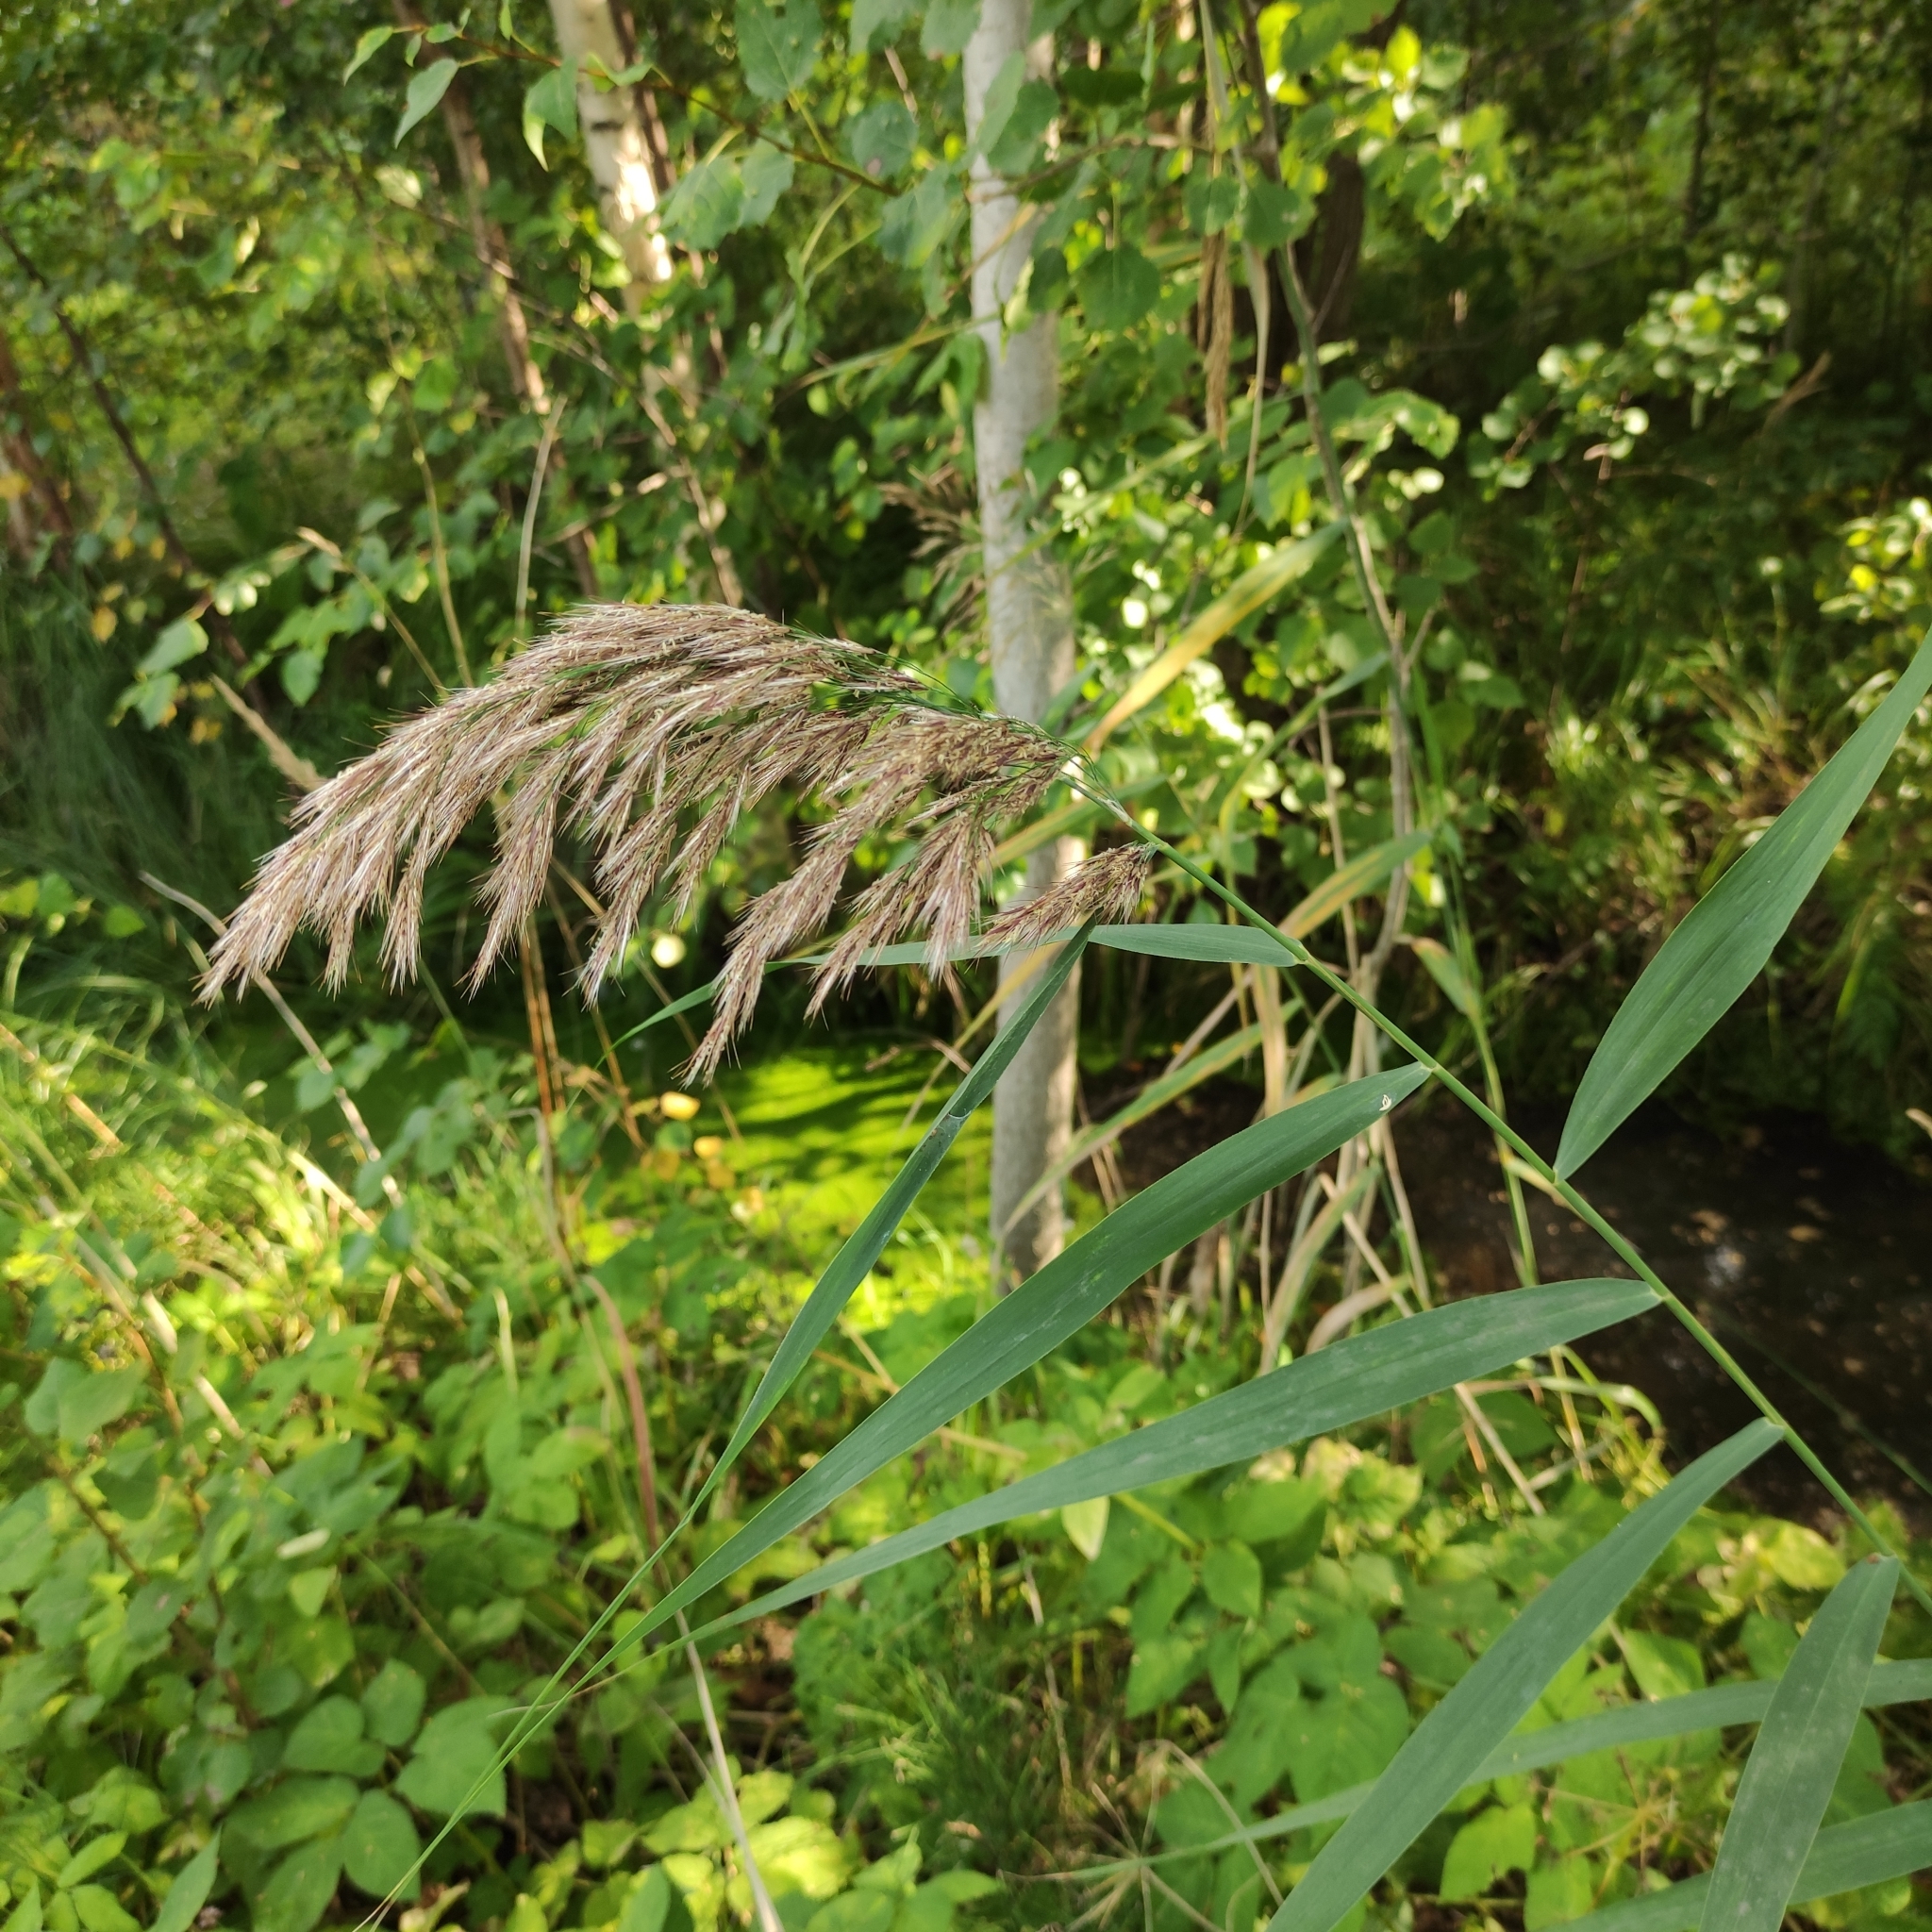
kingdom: Plantae
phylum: Tracheophyta
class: Liliopsida
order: Poales
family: Poaceae
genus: Phragmites
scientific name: Phragmites australis
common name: Common reed
